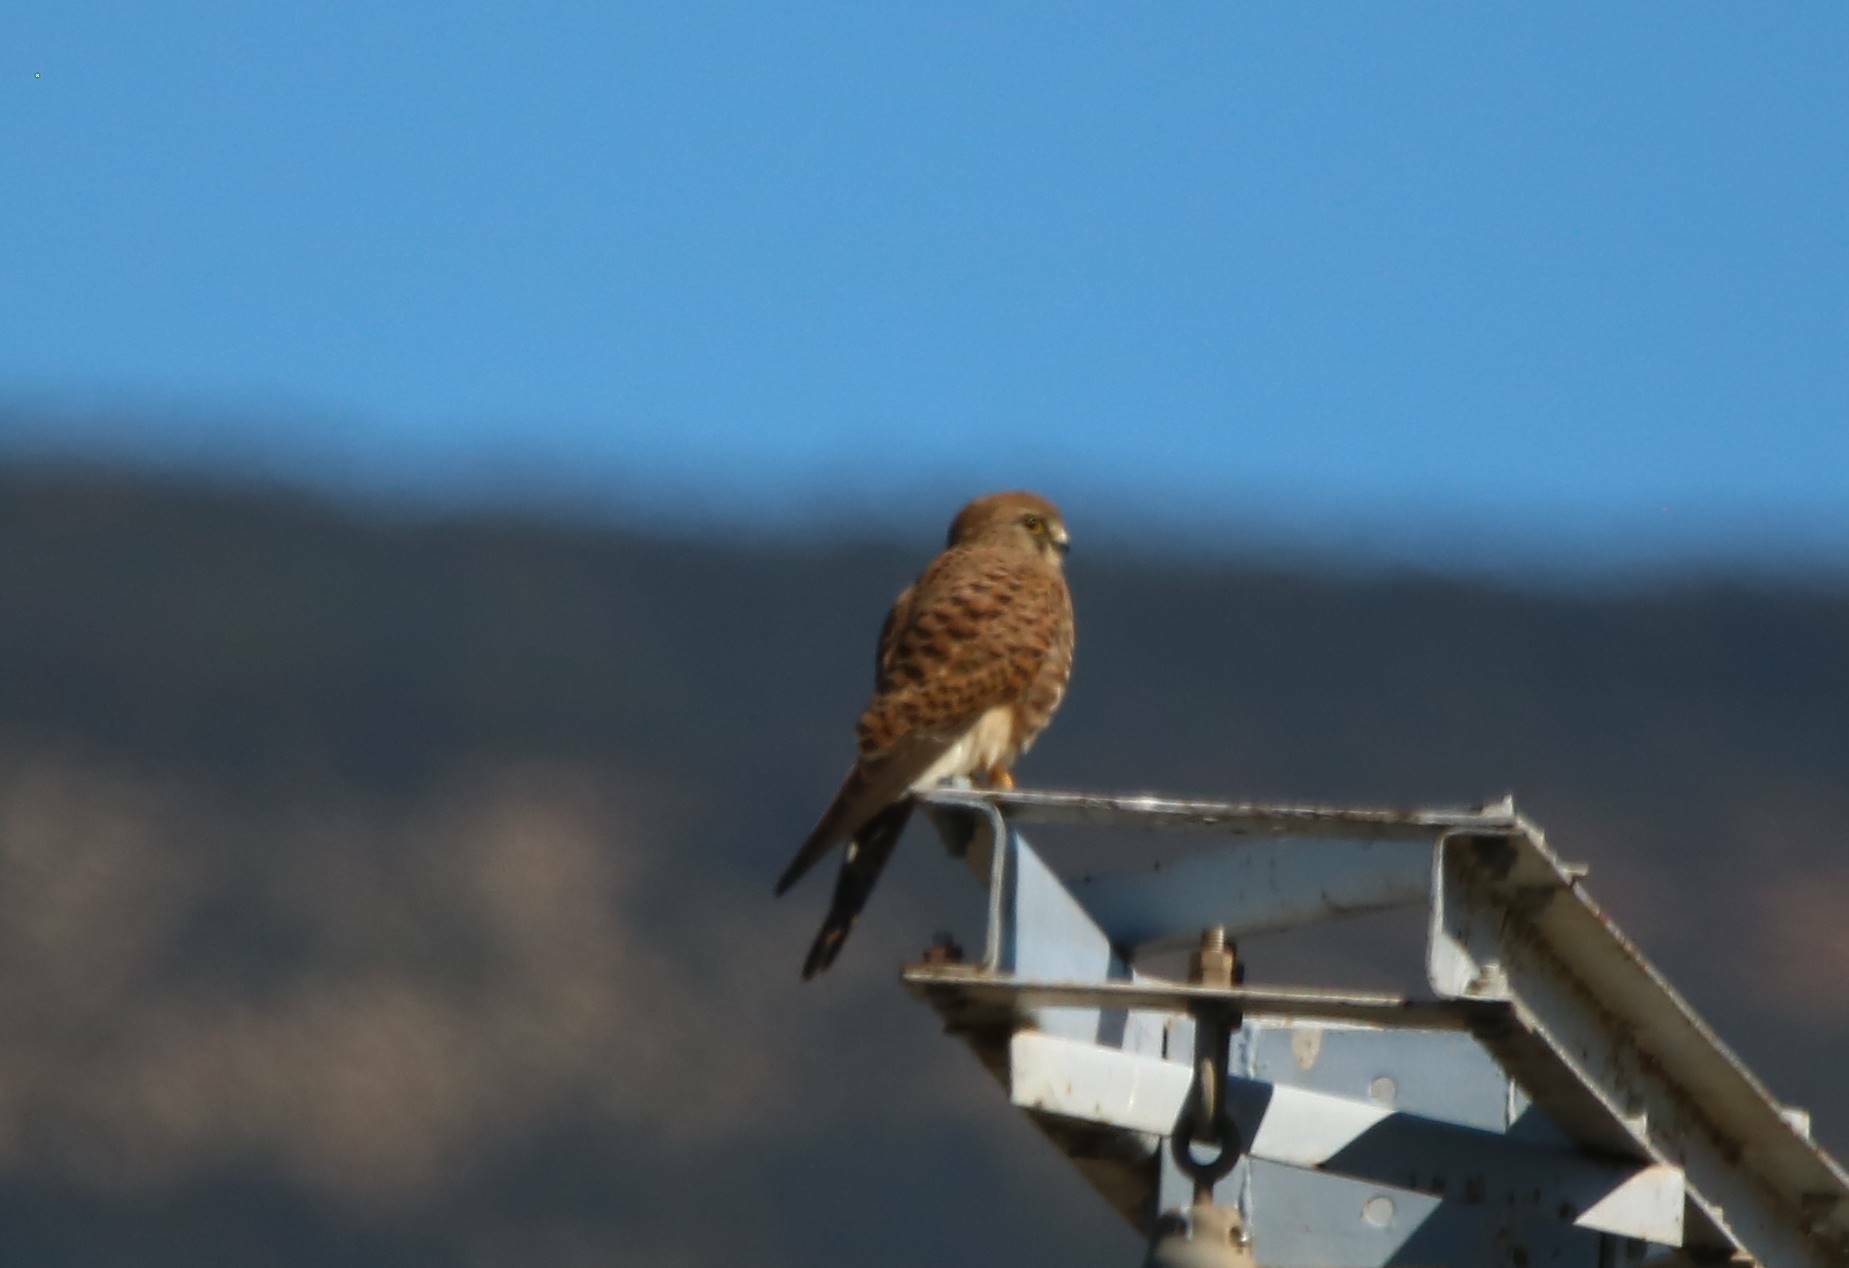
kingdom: Animalia
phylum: Chordata
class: Aves
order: Falconiformes
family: Falconidae
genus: Falco
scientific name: Falco tinnunculus
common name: Common kestrel
